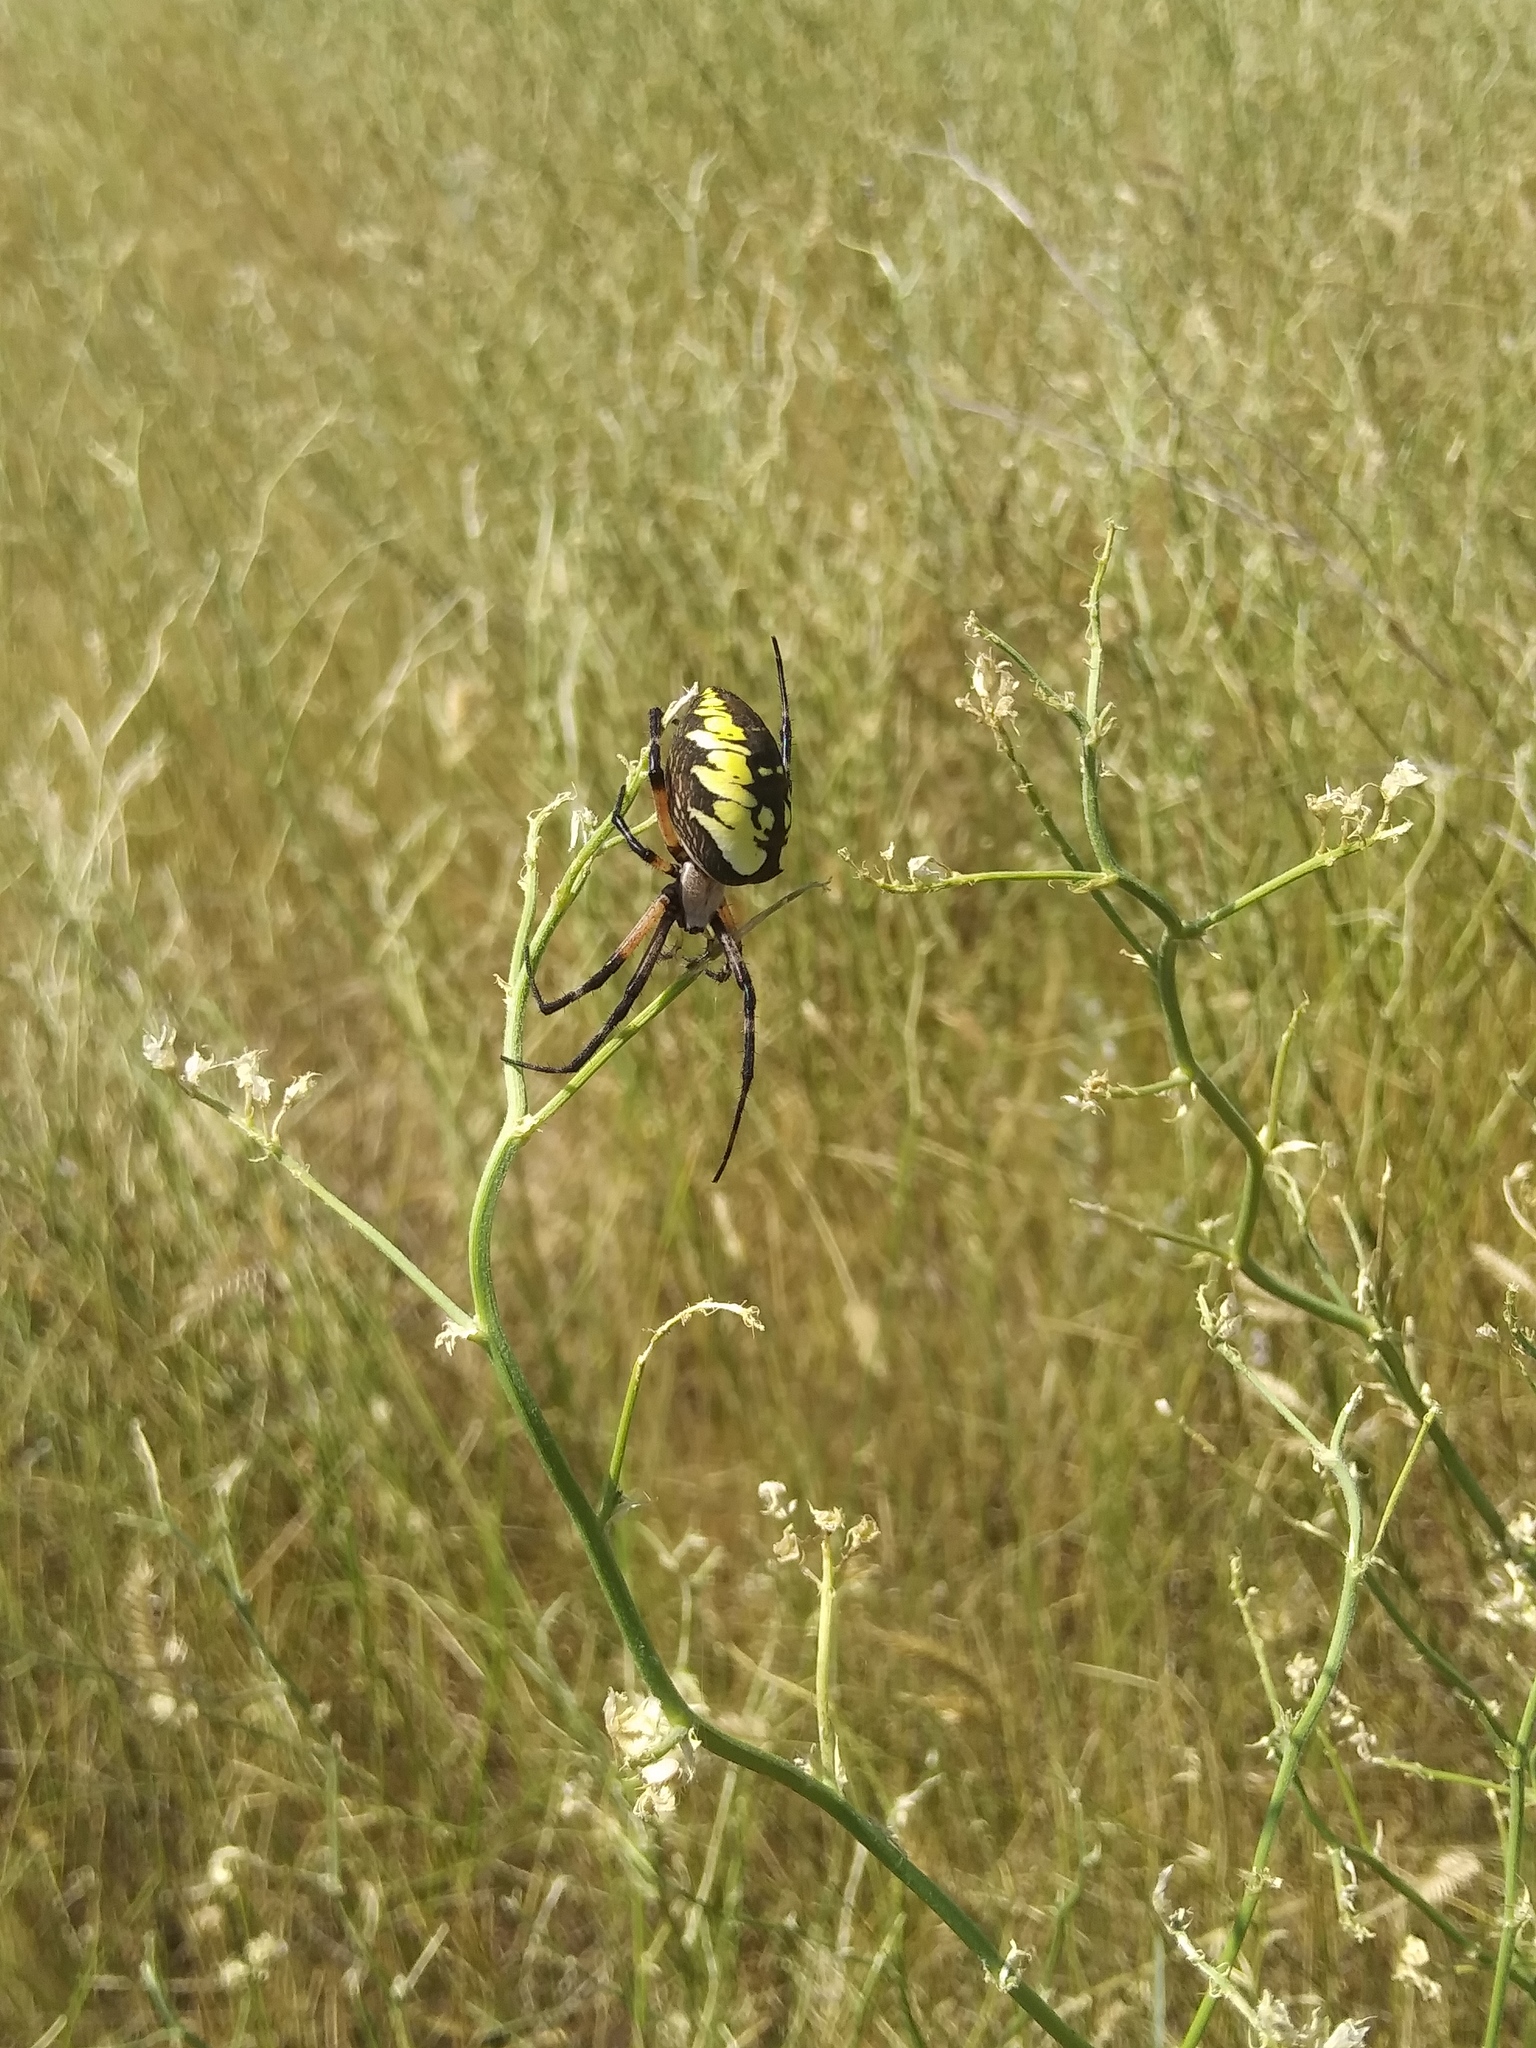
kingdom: Animalia
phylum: Arthropoda
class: Arachnida
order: Araneae
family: Araneidae
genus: Argiope
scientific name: Argiope aurantia
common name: Orb weavers
